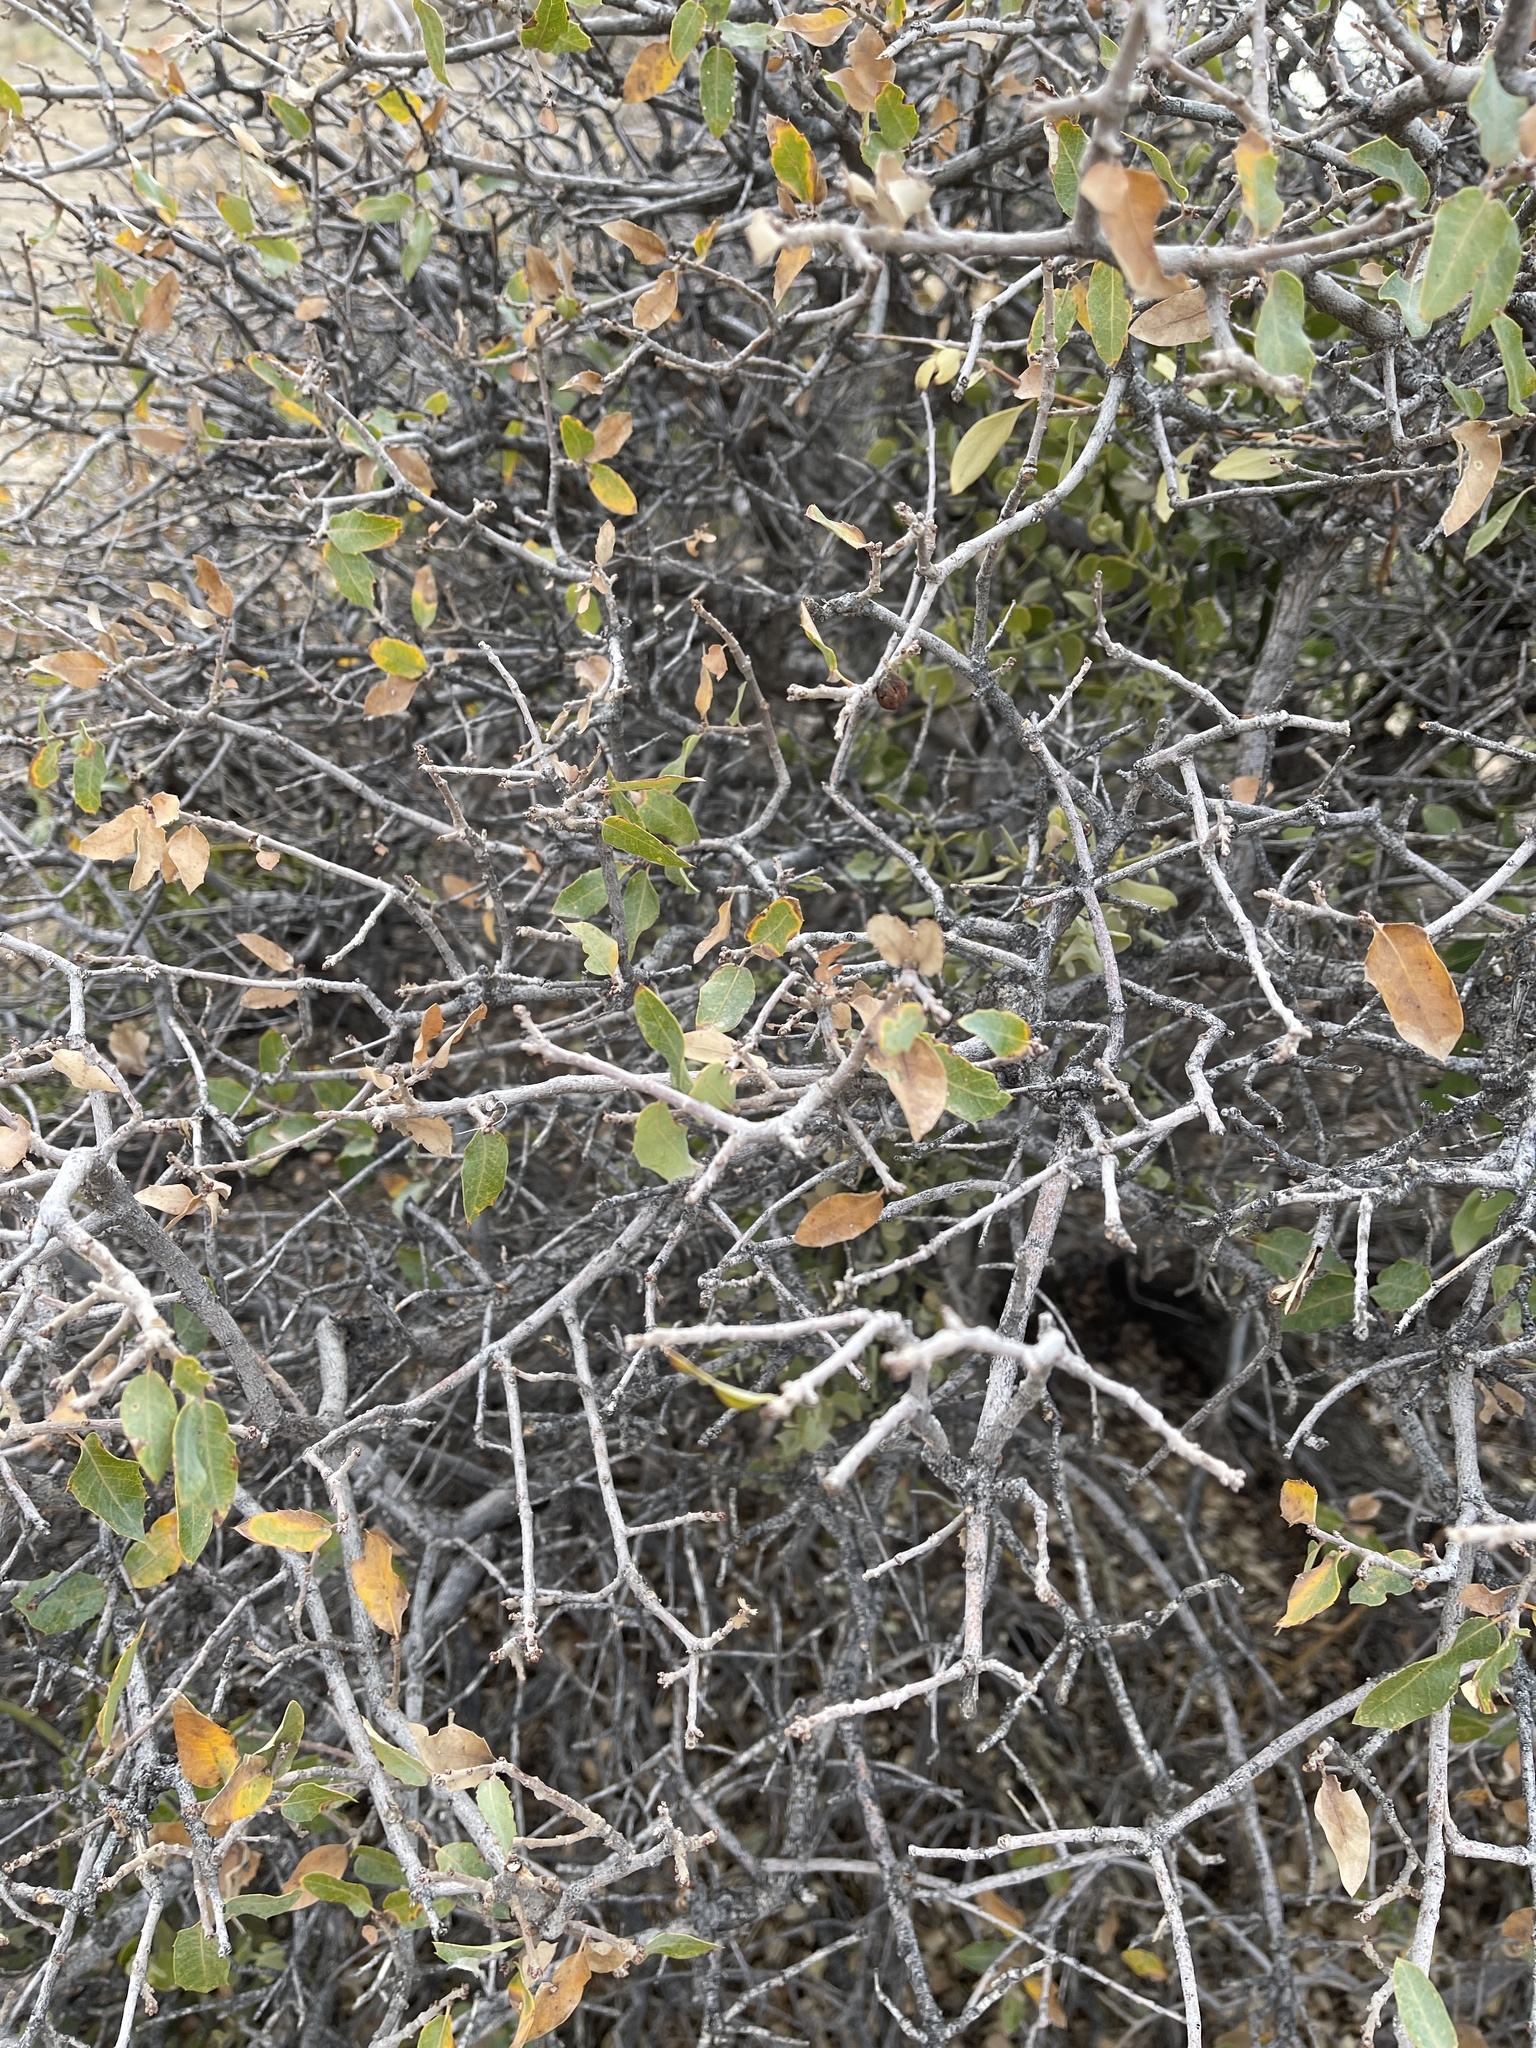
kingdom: Plantae
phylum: Tracheophyta
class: Magnoliopsida
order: Fagales
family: Fagaceae
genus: Quercus
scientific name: Quercus turbinella
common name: Sonoran scrub oak
